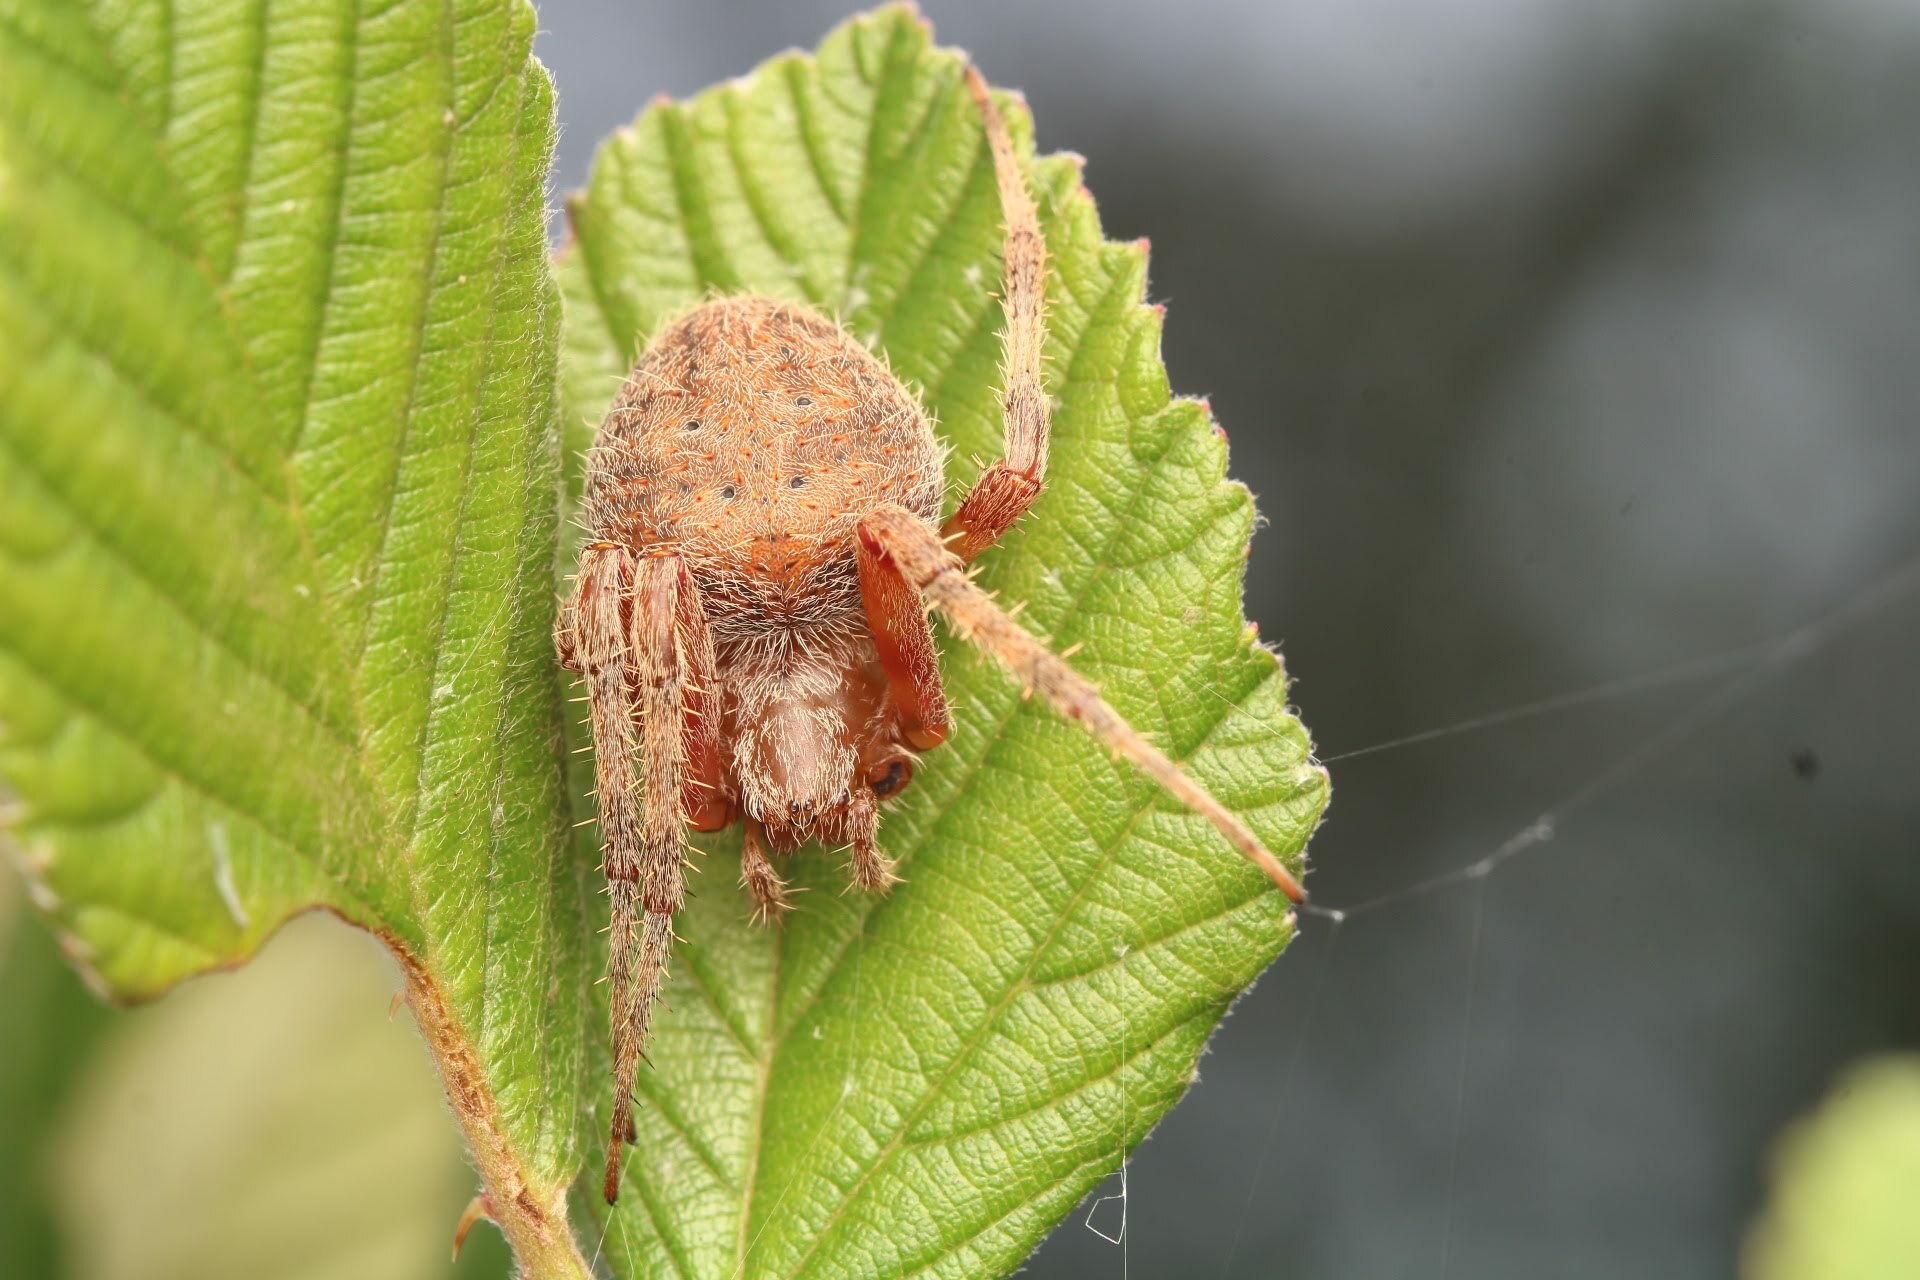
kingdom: Animalia
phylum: Arthropoda
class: Arachnida
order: Araneae
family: Araneidae
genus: Neoscona
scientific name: Neoscona crucifera
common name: Spotted orbweaver
